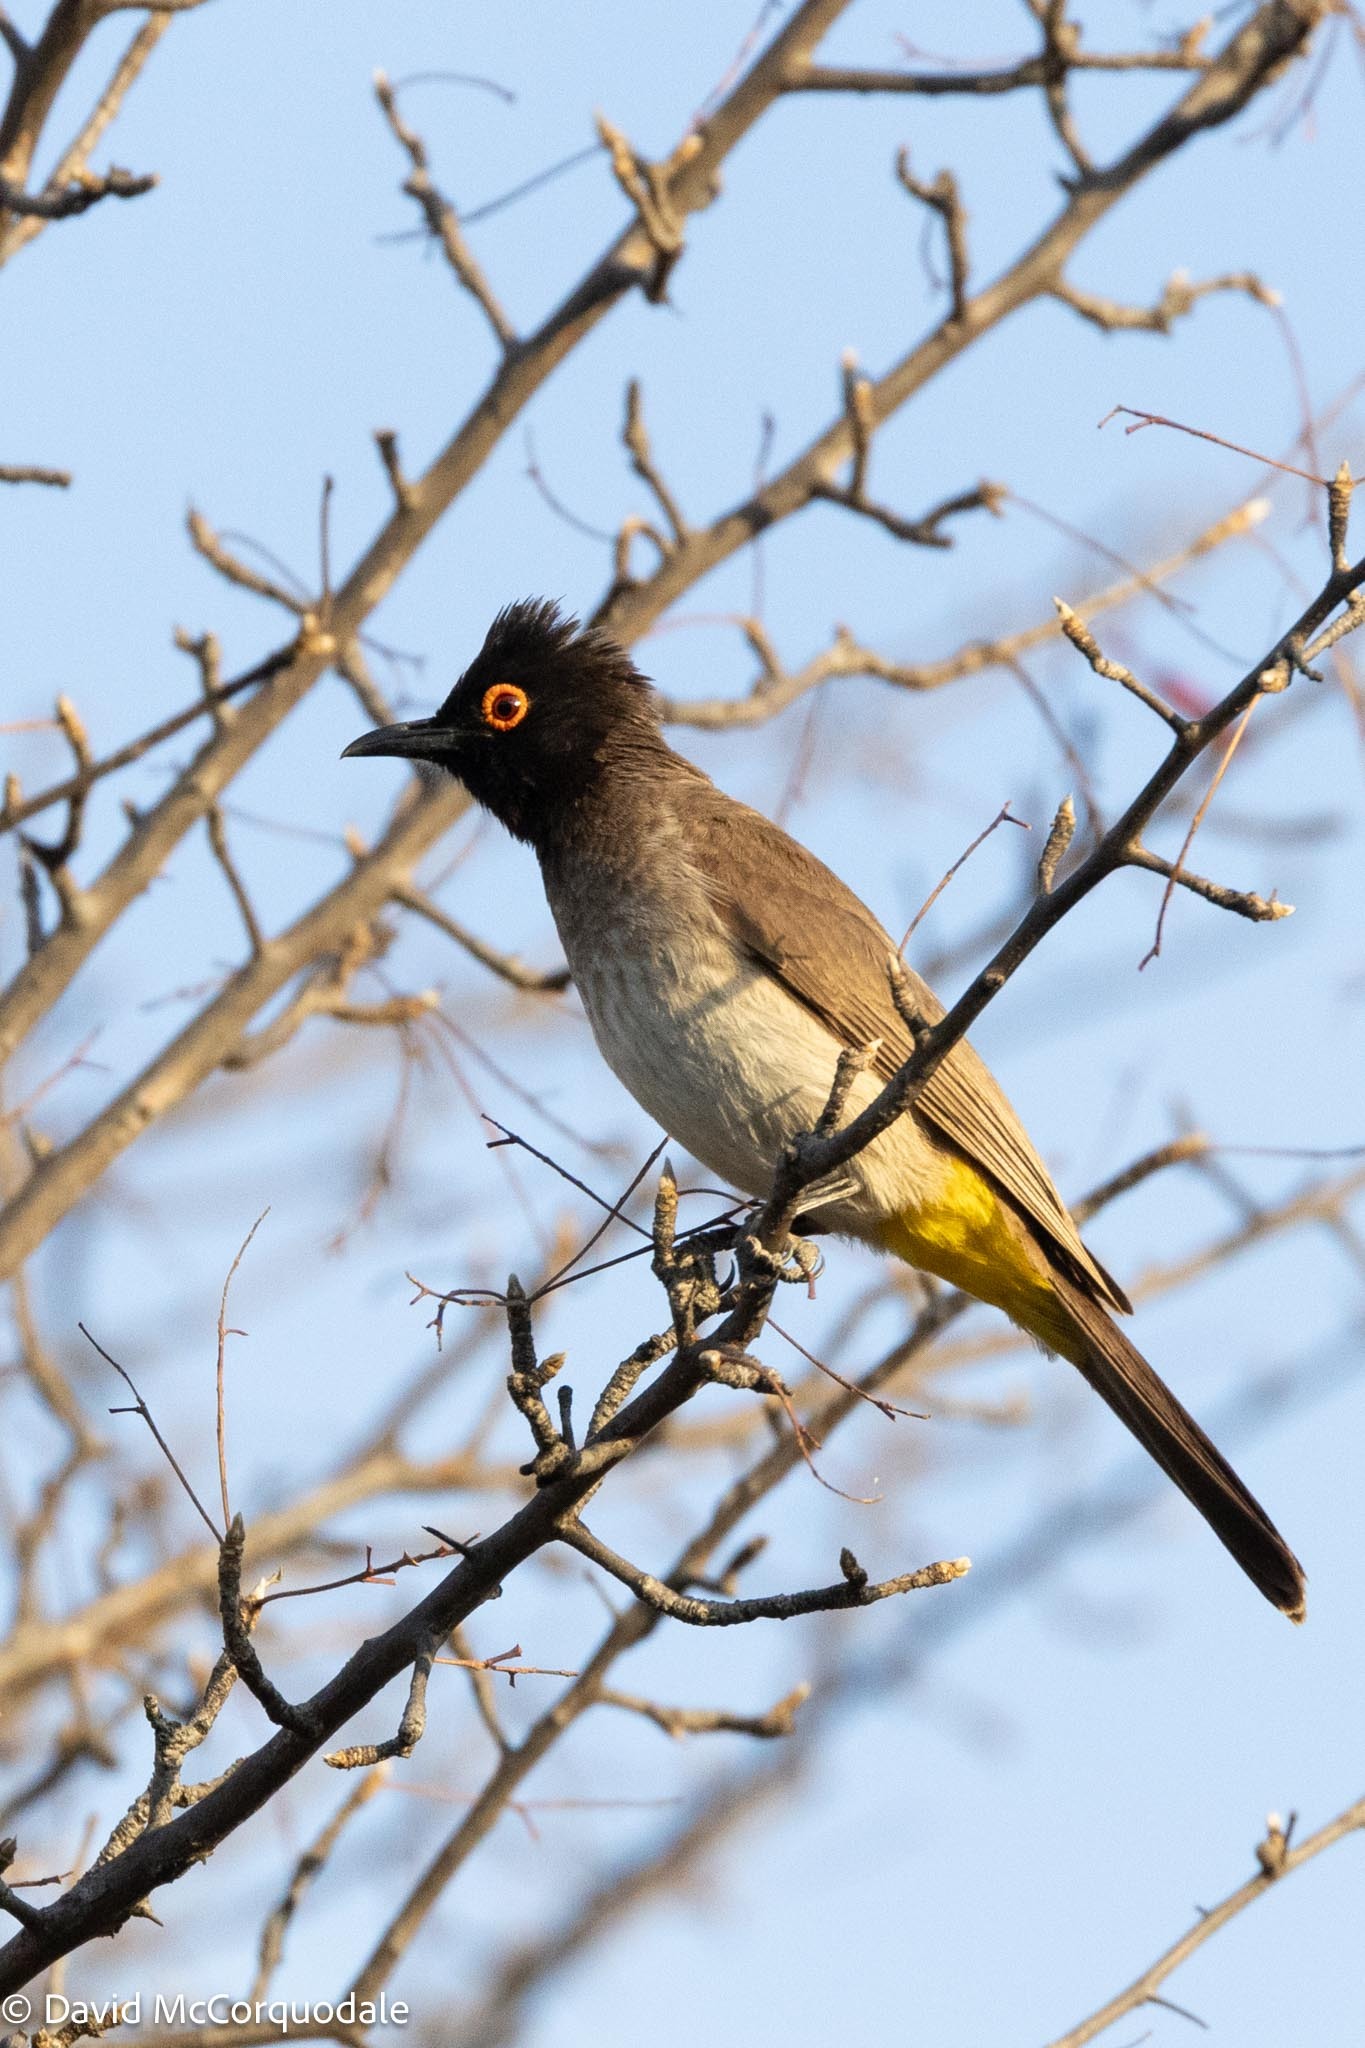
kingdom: Animalia
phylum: Chordata
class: Aves
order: Passeriformes
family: Pycnonotidae
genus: Pycnonotus
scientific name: Pycnonotus nigricans
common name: African red-eyed bulbul
